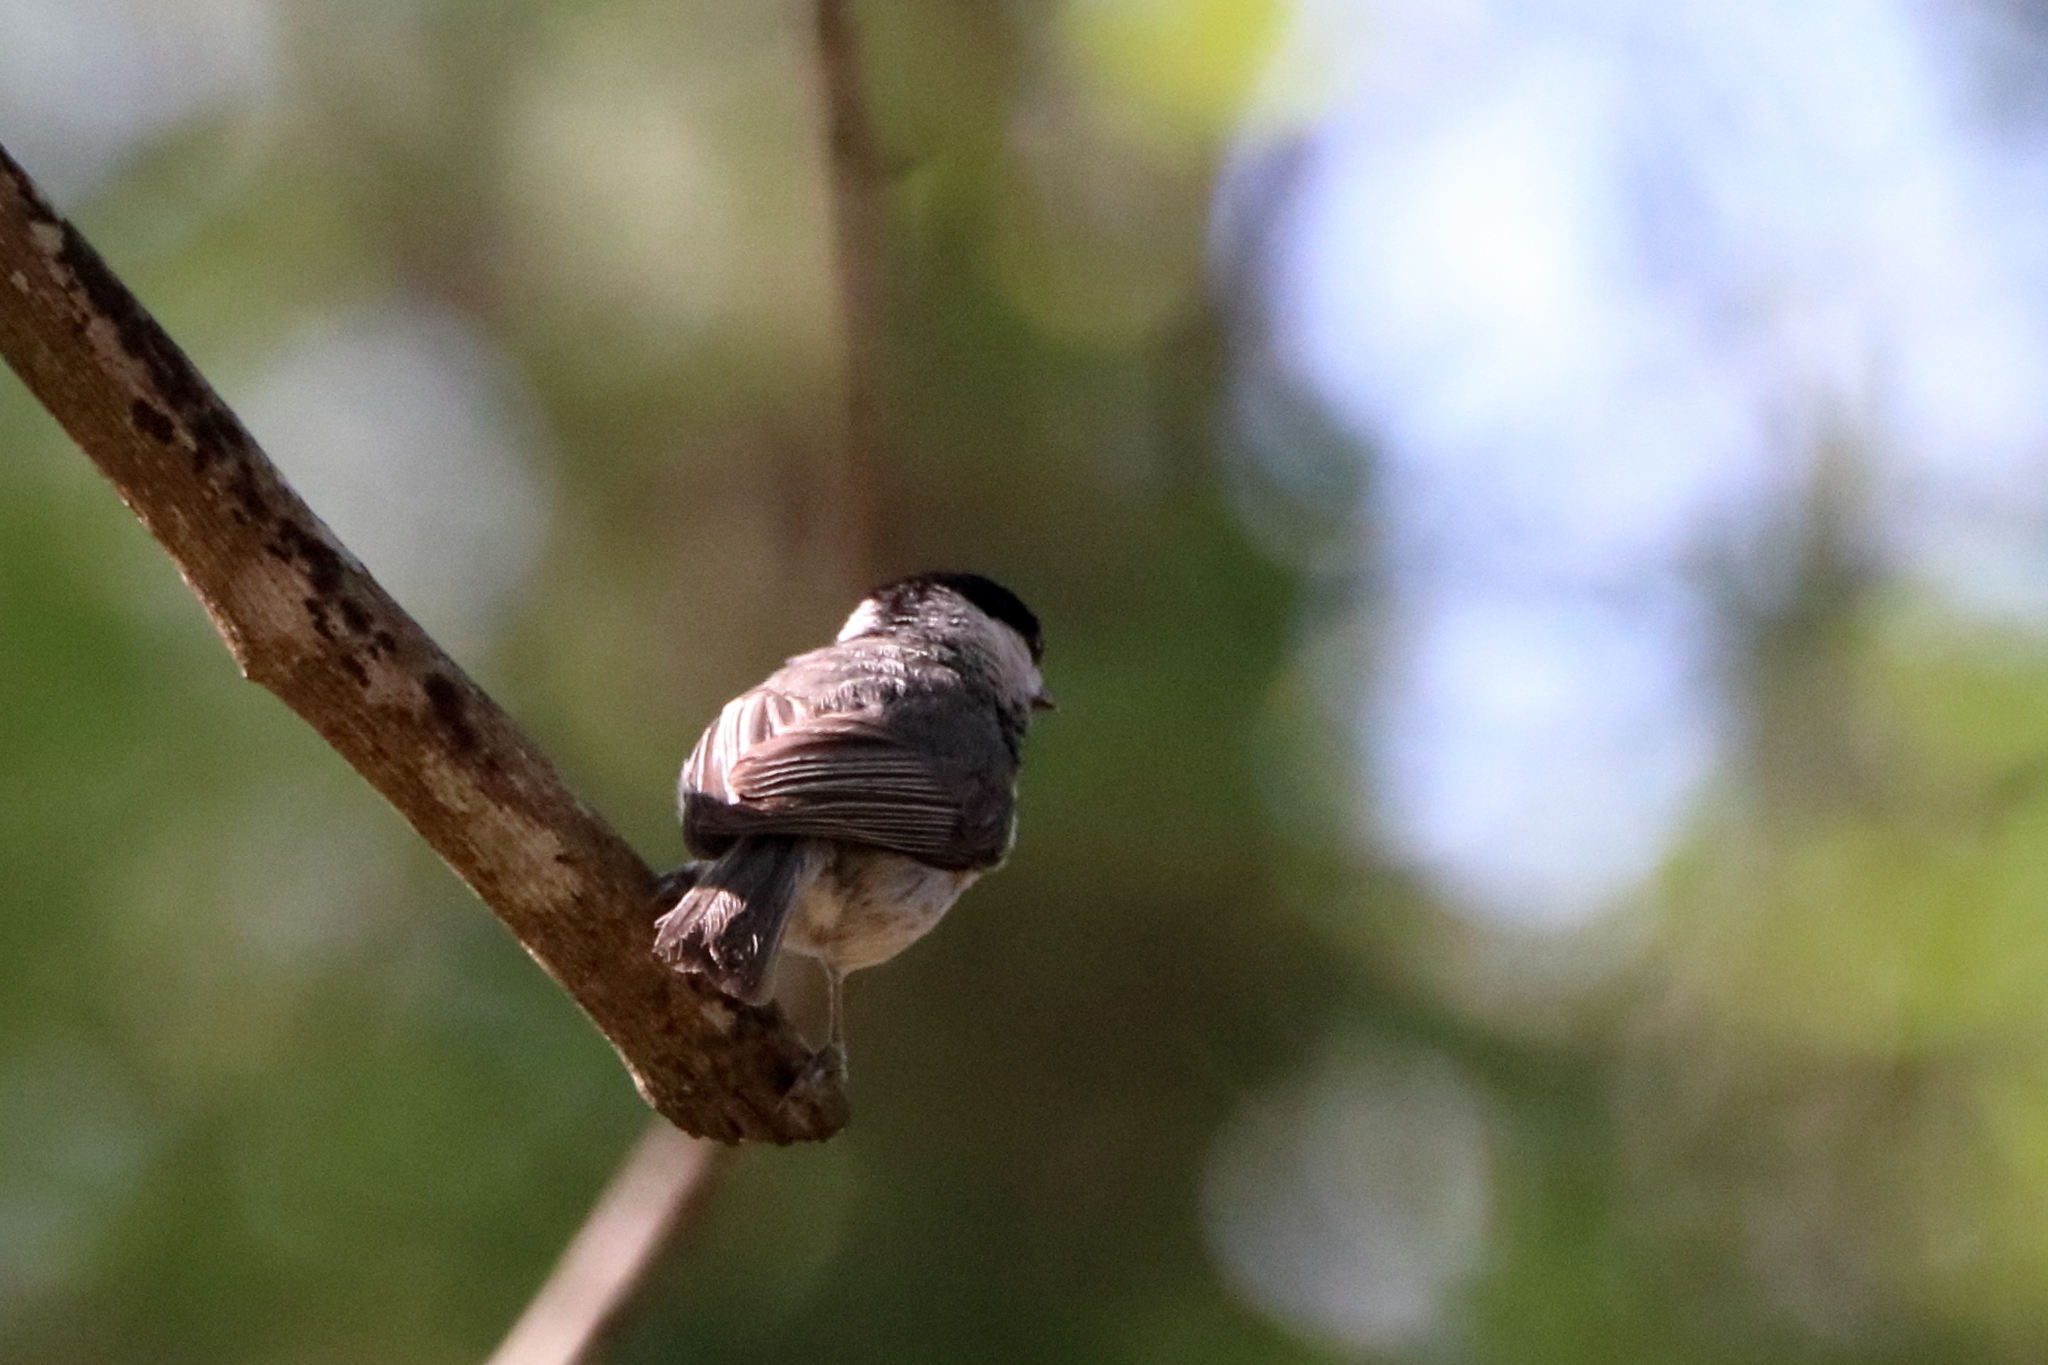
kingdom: Animalia
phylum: Chordata
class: Aves
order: Passeriformes
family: Paridae
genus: Poecile
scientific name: Poecile carolinensis
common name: Carolina chickadee
